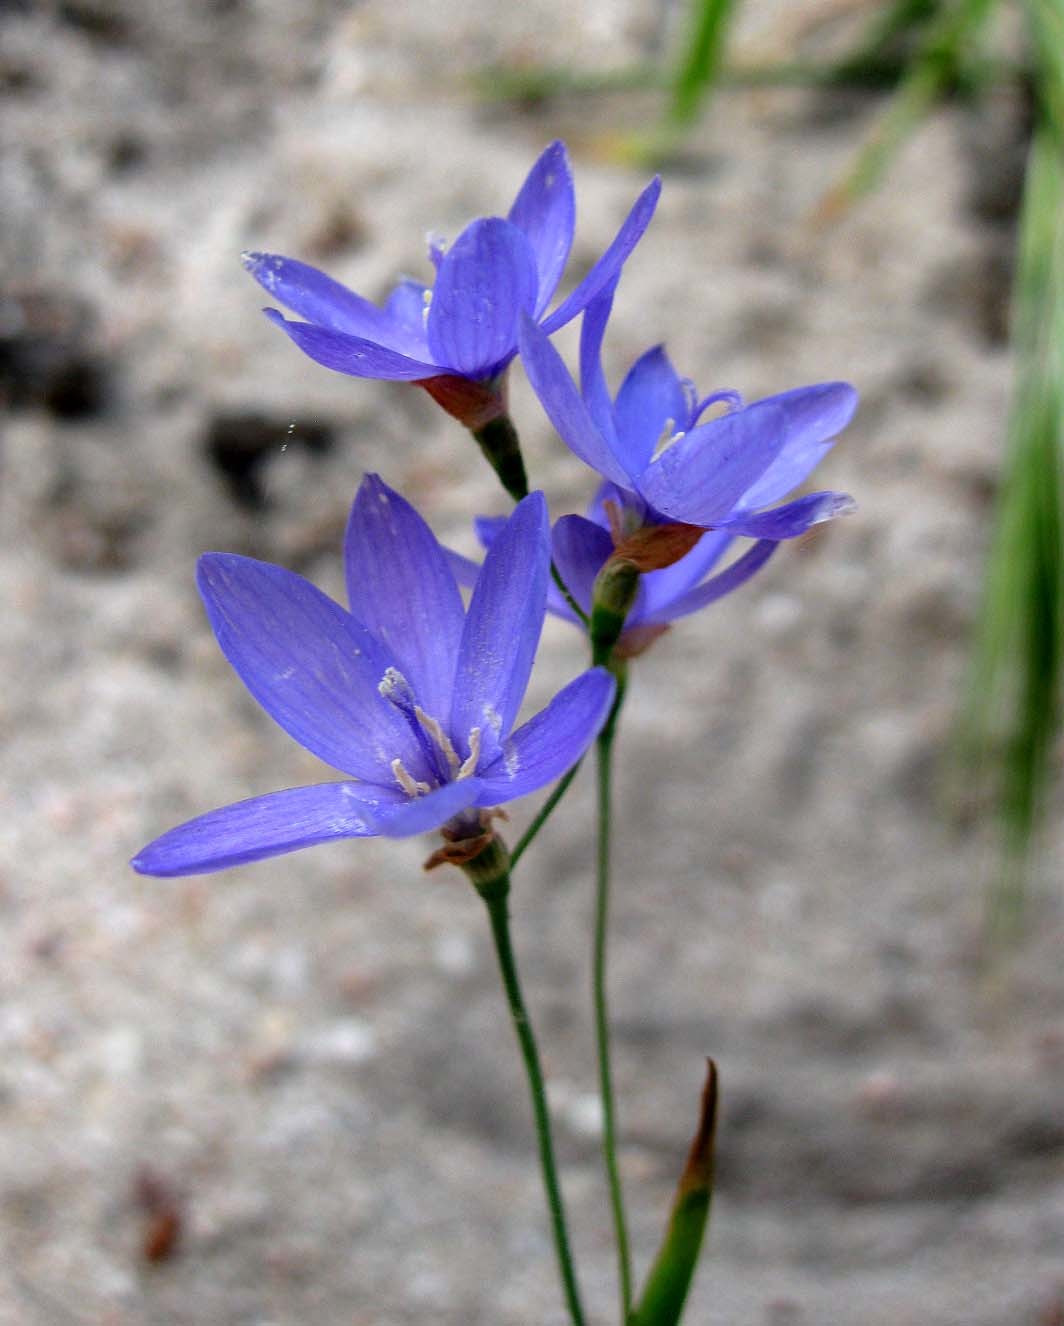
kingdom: Plantae
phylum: Tracheophyta
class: Liliopsida
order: Asparagales
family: Iridaceae
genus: Geissorhiza
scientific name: Geissorhiza aspera
